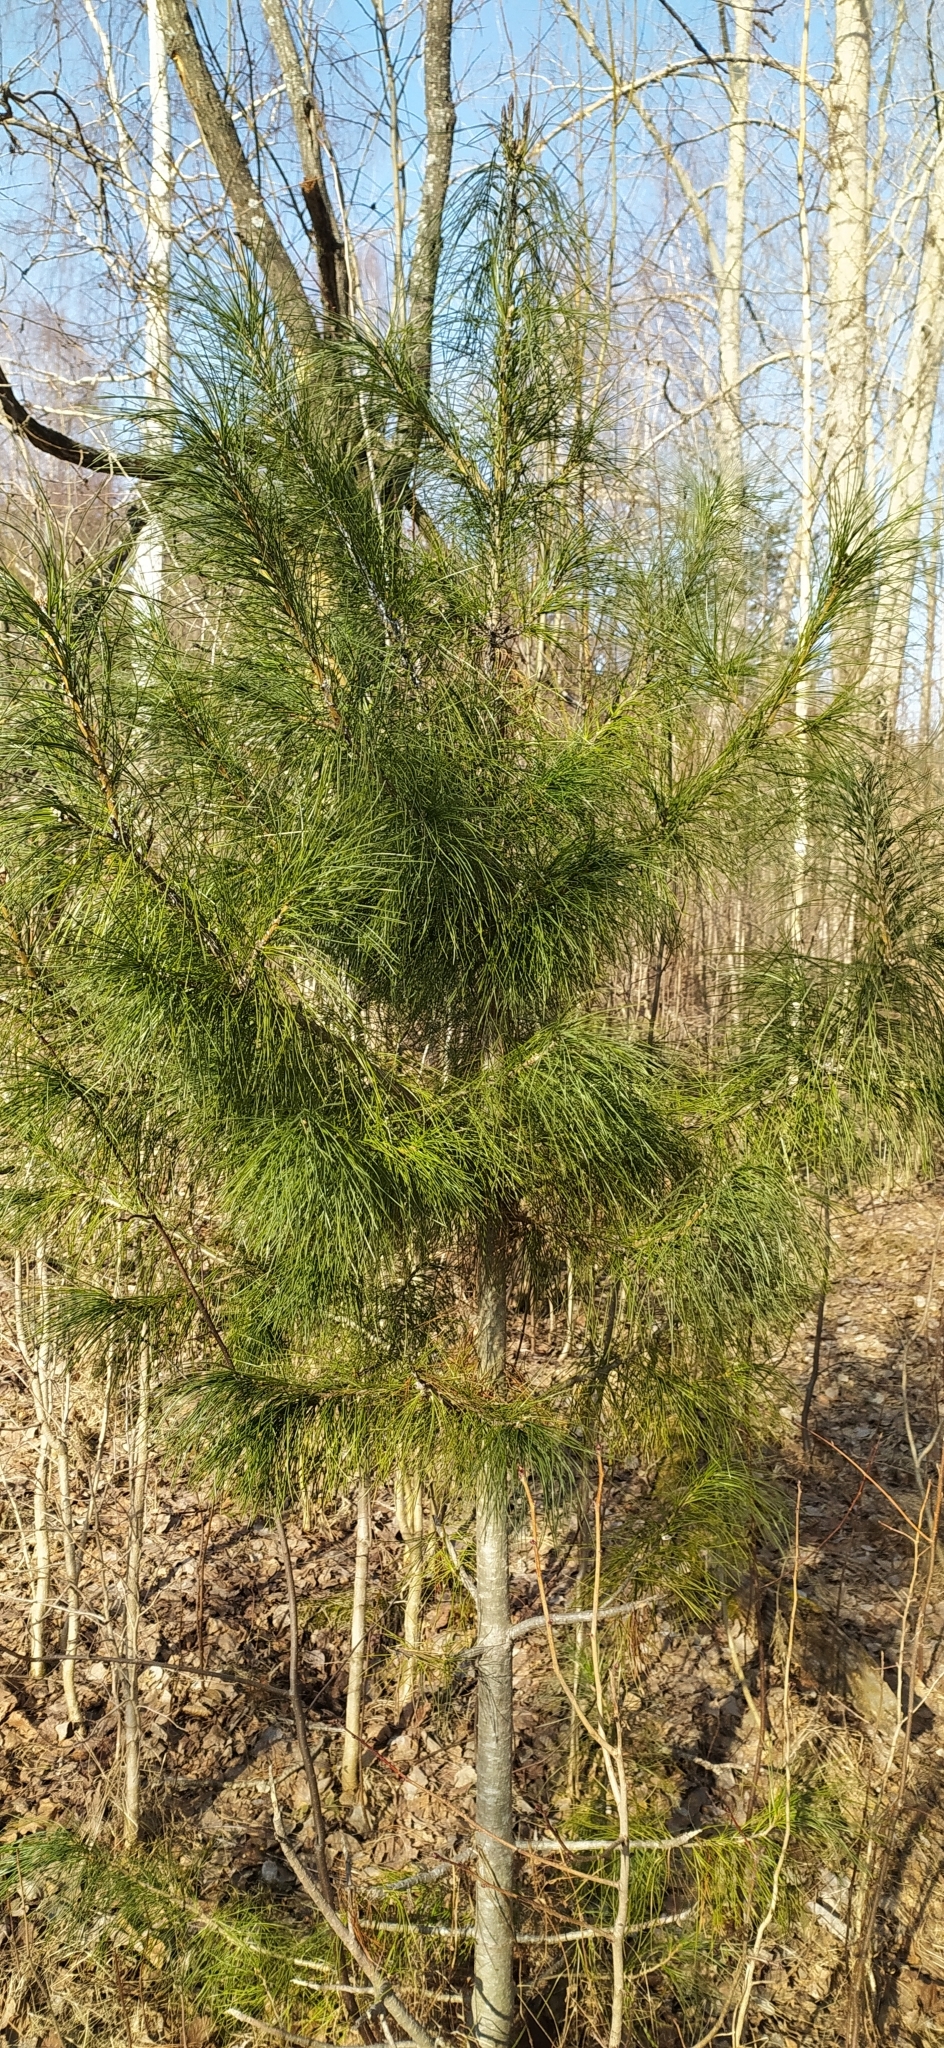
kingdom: Plantae
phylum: Tracheophyta
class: Pinopsida
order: Pinales
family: Pinaceae
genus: Pinus
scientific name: Pinus sibirica
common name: Siberian pine
